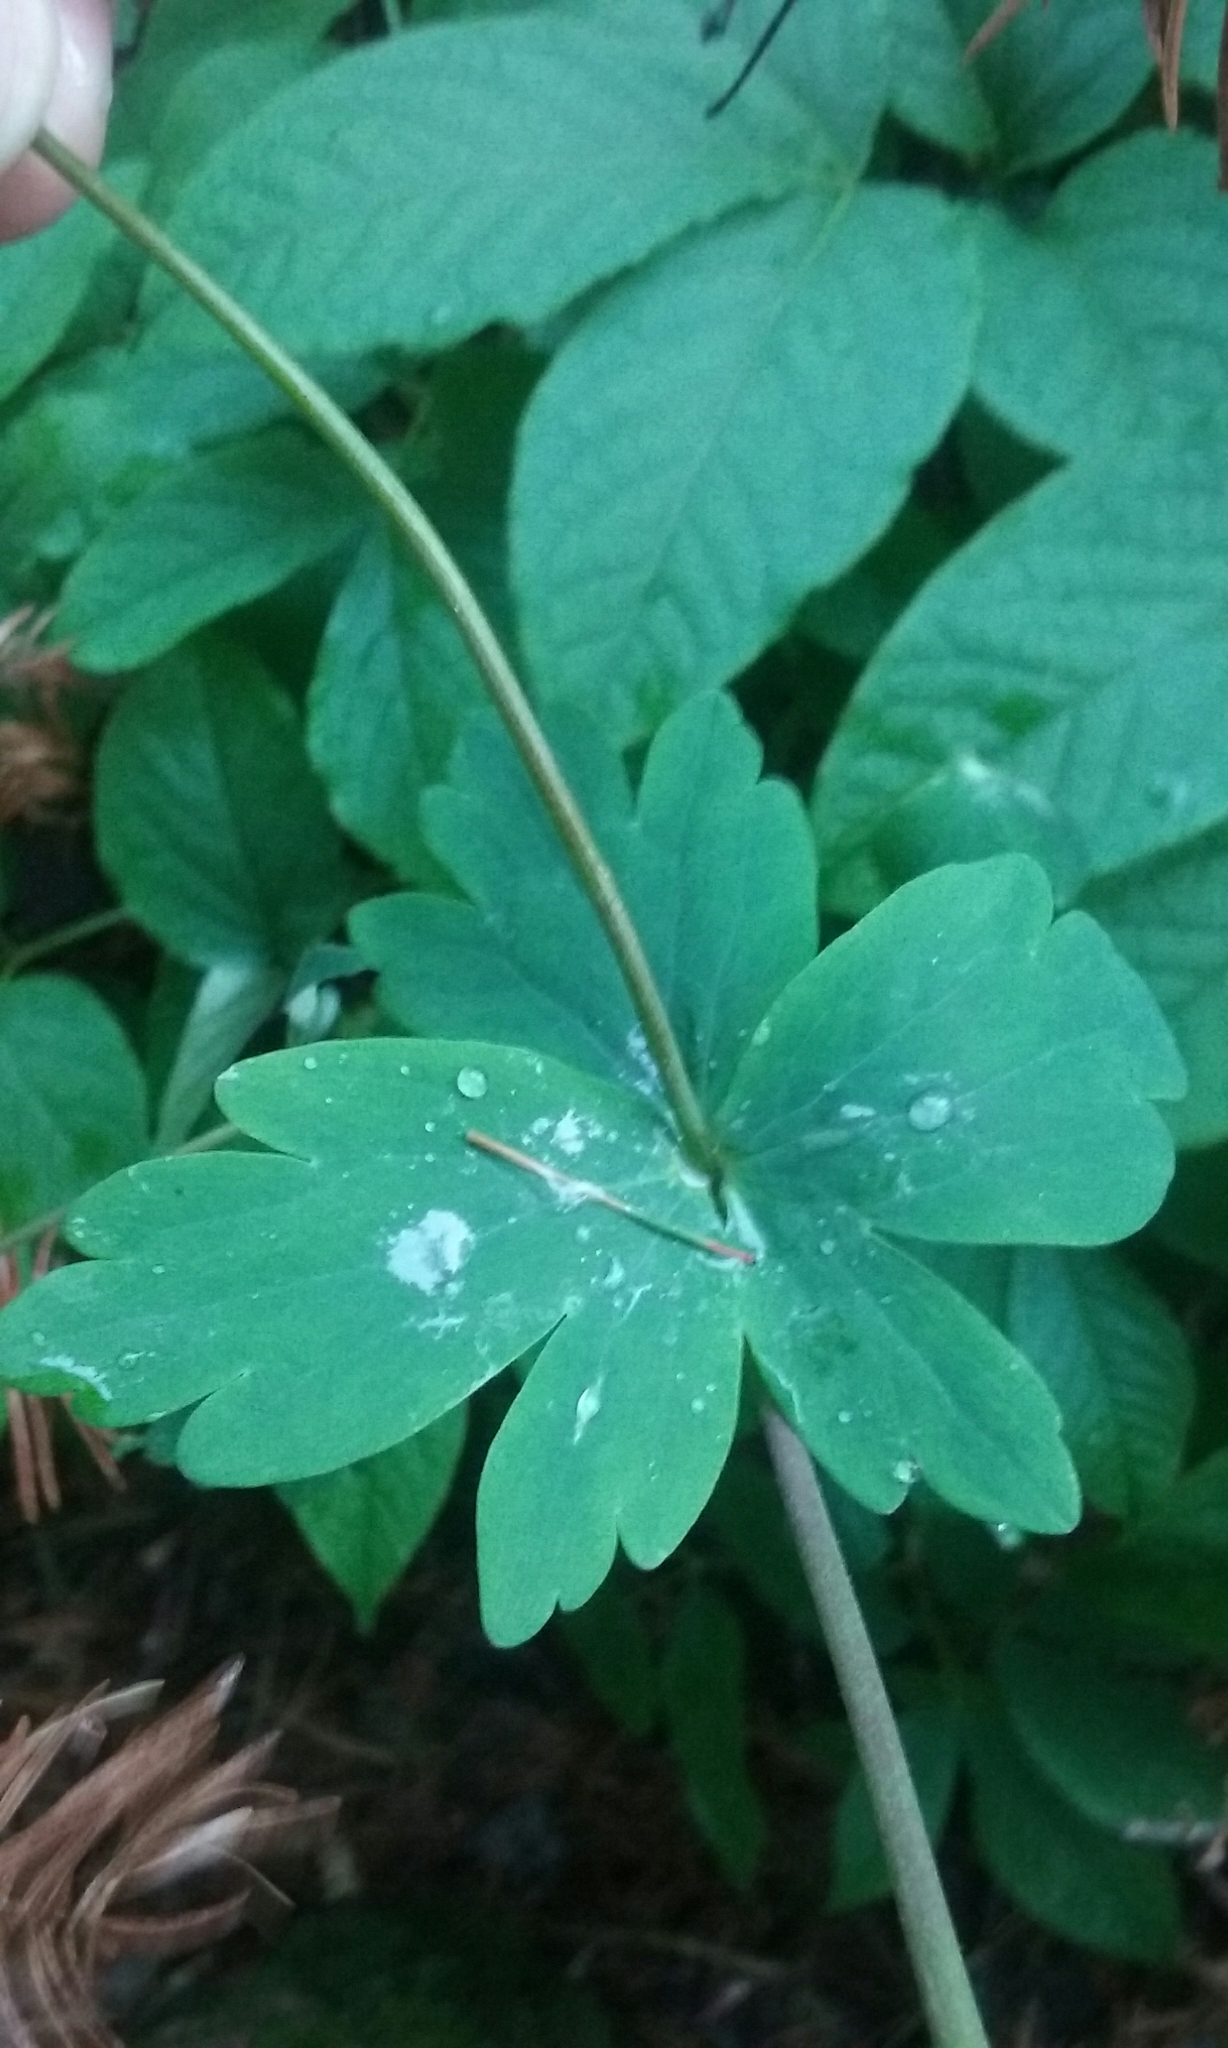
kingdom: Plantae
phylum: Tracheophyta
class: Magnoliopsida
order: Ranunculales
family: Ranunculaceae
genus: Aquilegia
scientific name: Aquilegia canadensis
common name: American columbine
